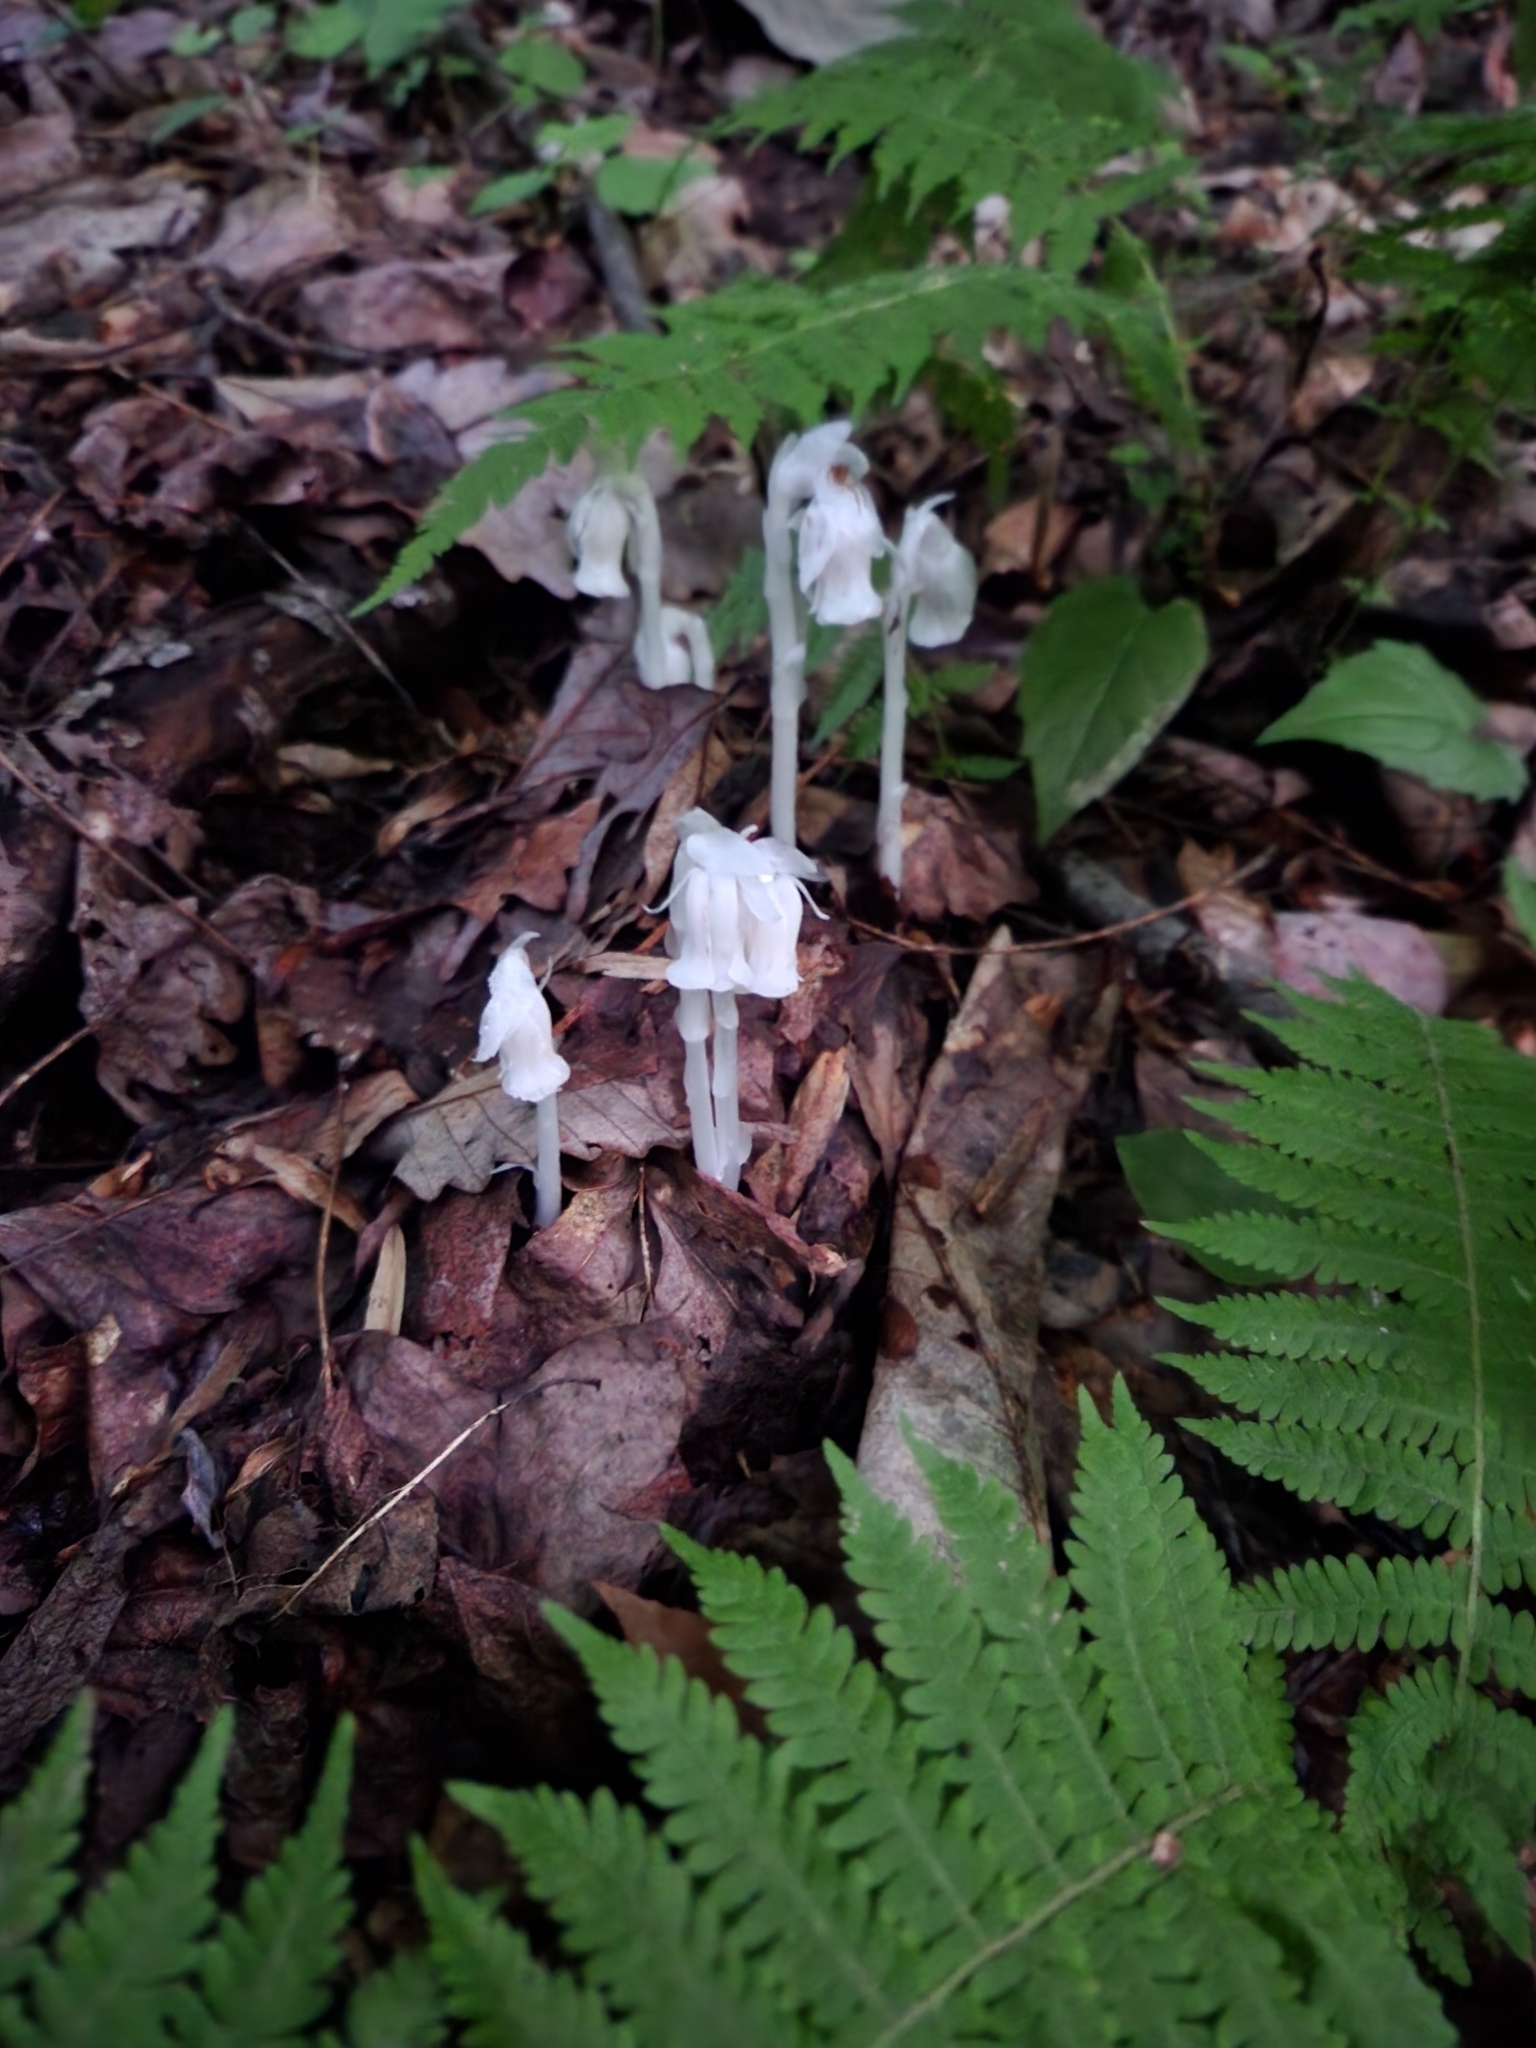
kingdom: Plantae
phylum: Tracheophyta
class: Magnoliopsida
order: Ericales
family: Ericaceae
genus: Monotropa
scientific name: Monotropa uniflora
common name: Convulsion root
